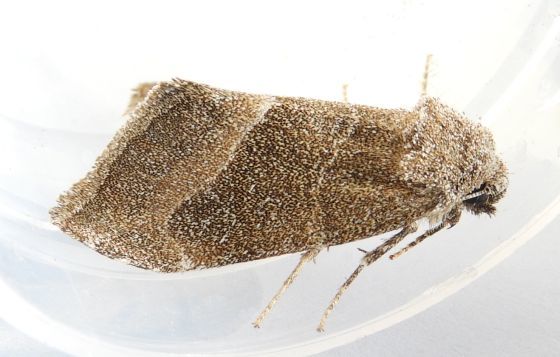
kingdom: Animalia
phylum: Arthropoda
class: Insecta
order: Lepidoptera
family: Noctuidae
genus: Plagiomimicus
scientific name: Plagiomimicus spumosum
